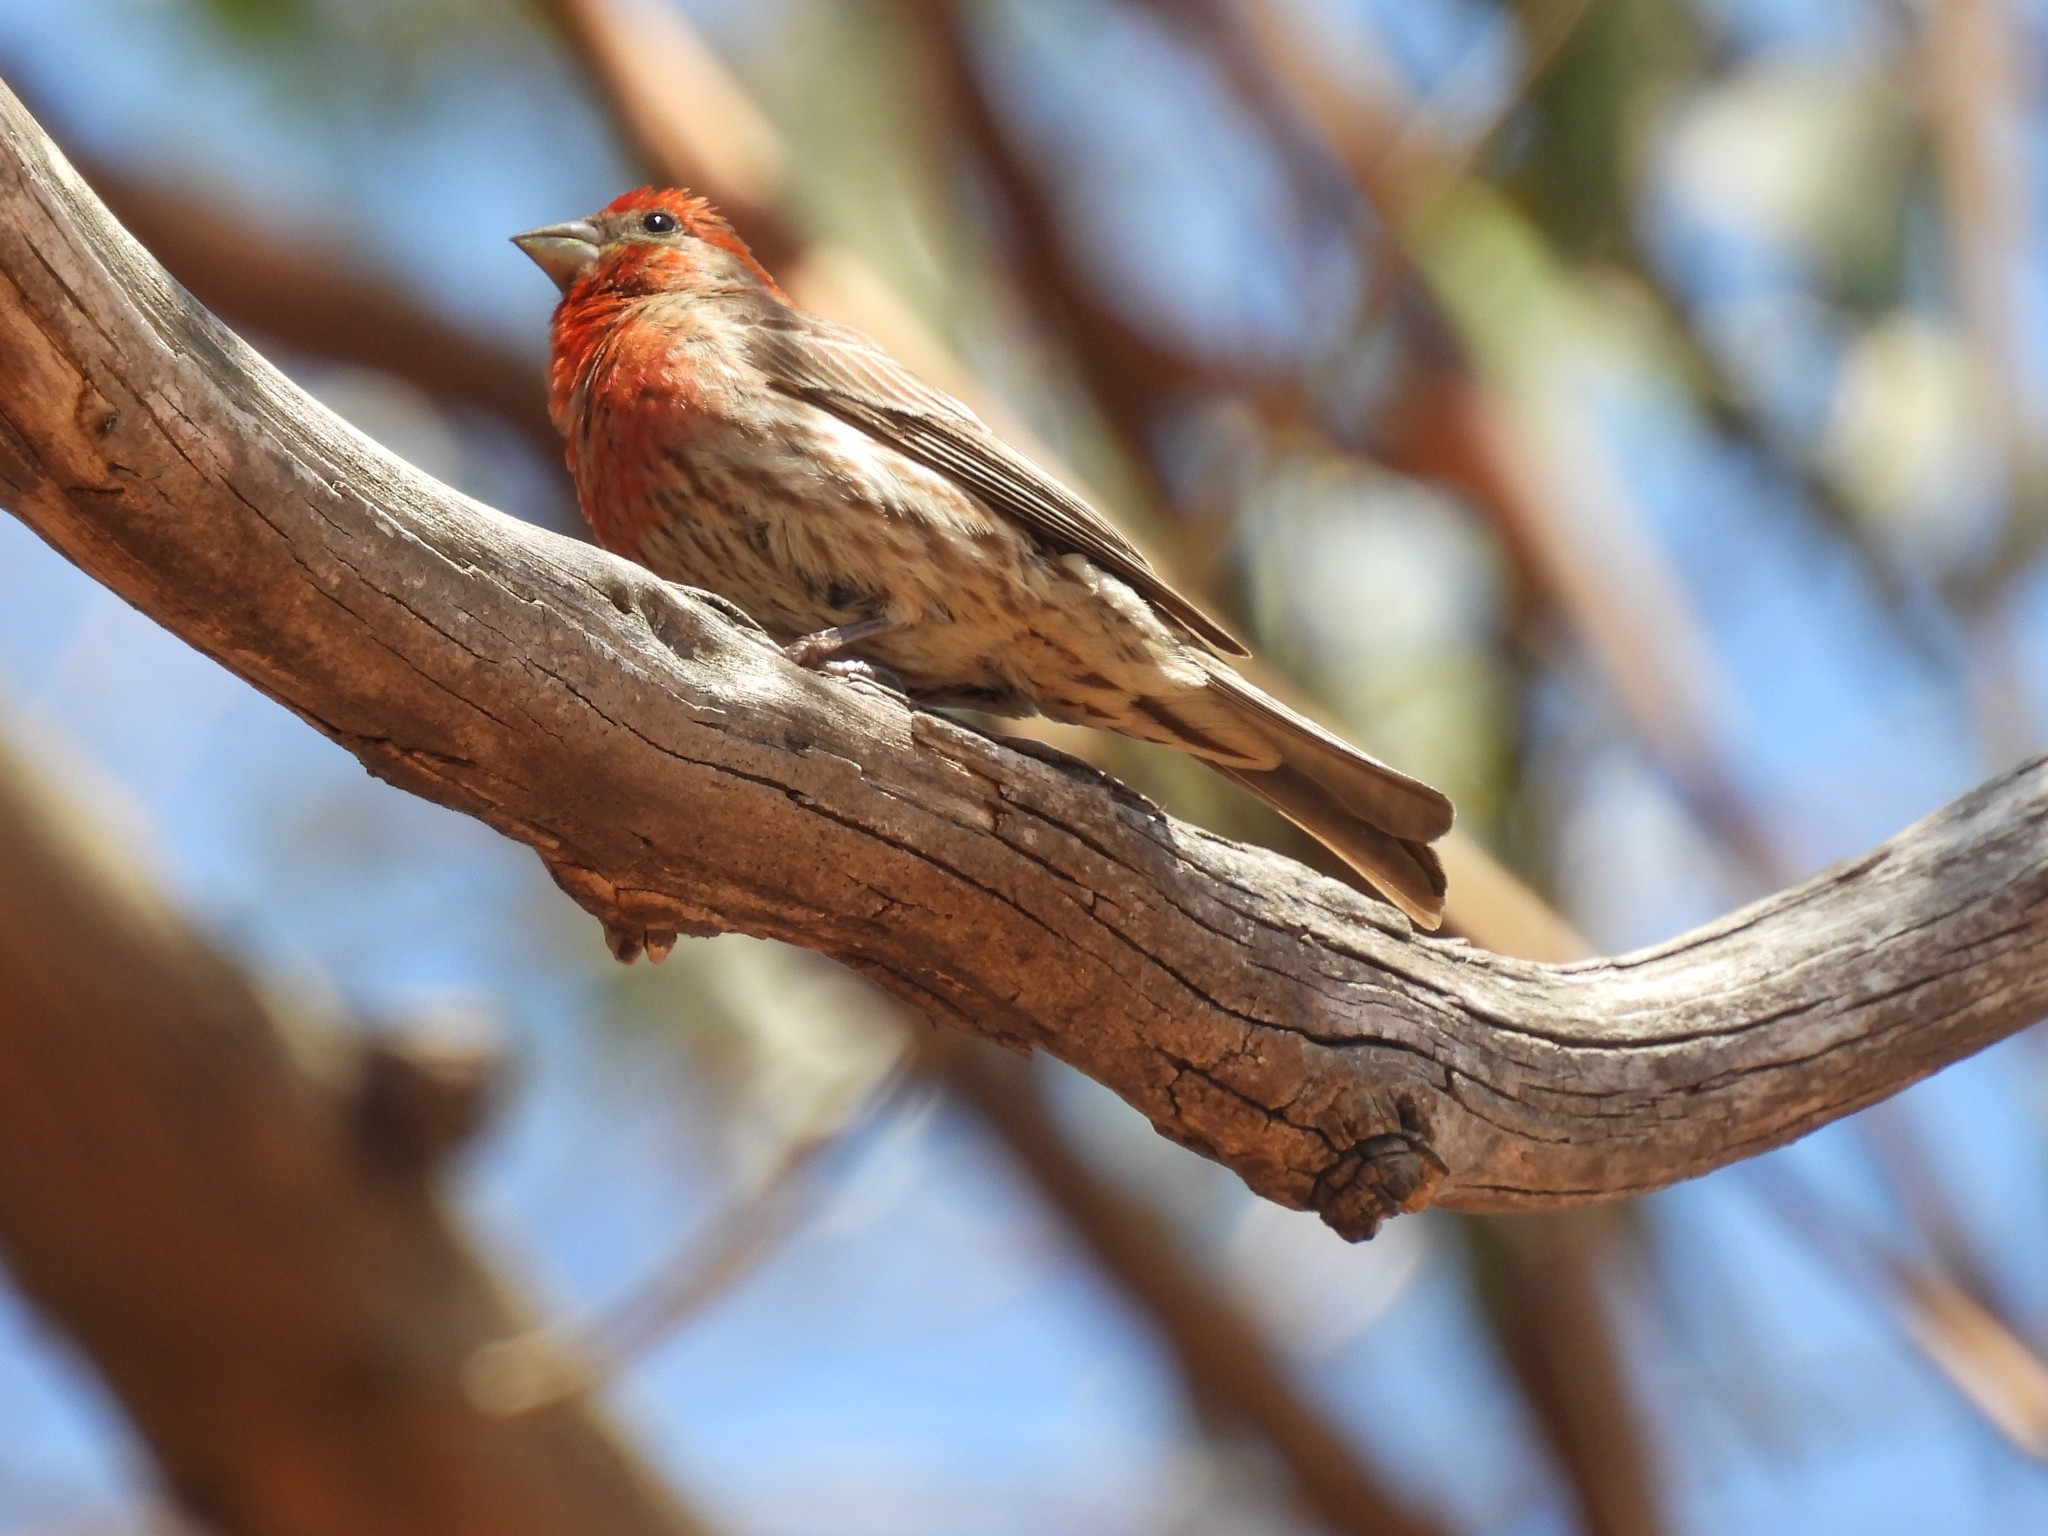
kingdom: Animalia
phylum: Chordata
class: Aves
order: Passeriformes
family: Fringillidae
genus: Haemorhous
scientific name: Haemorhous mexicanus
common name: House finch
